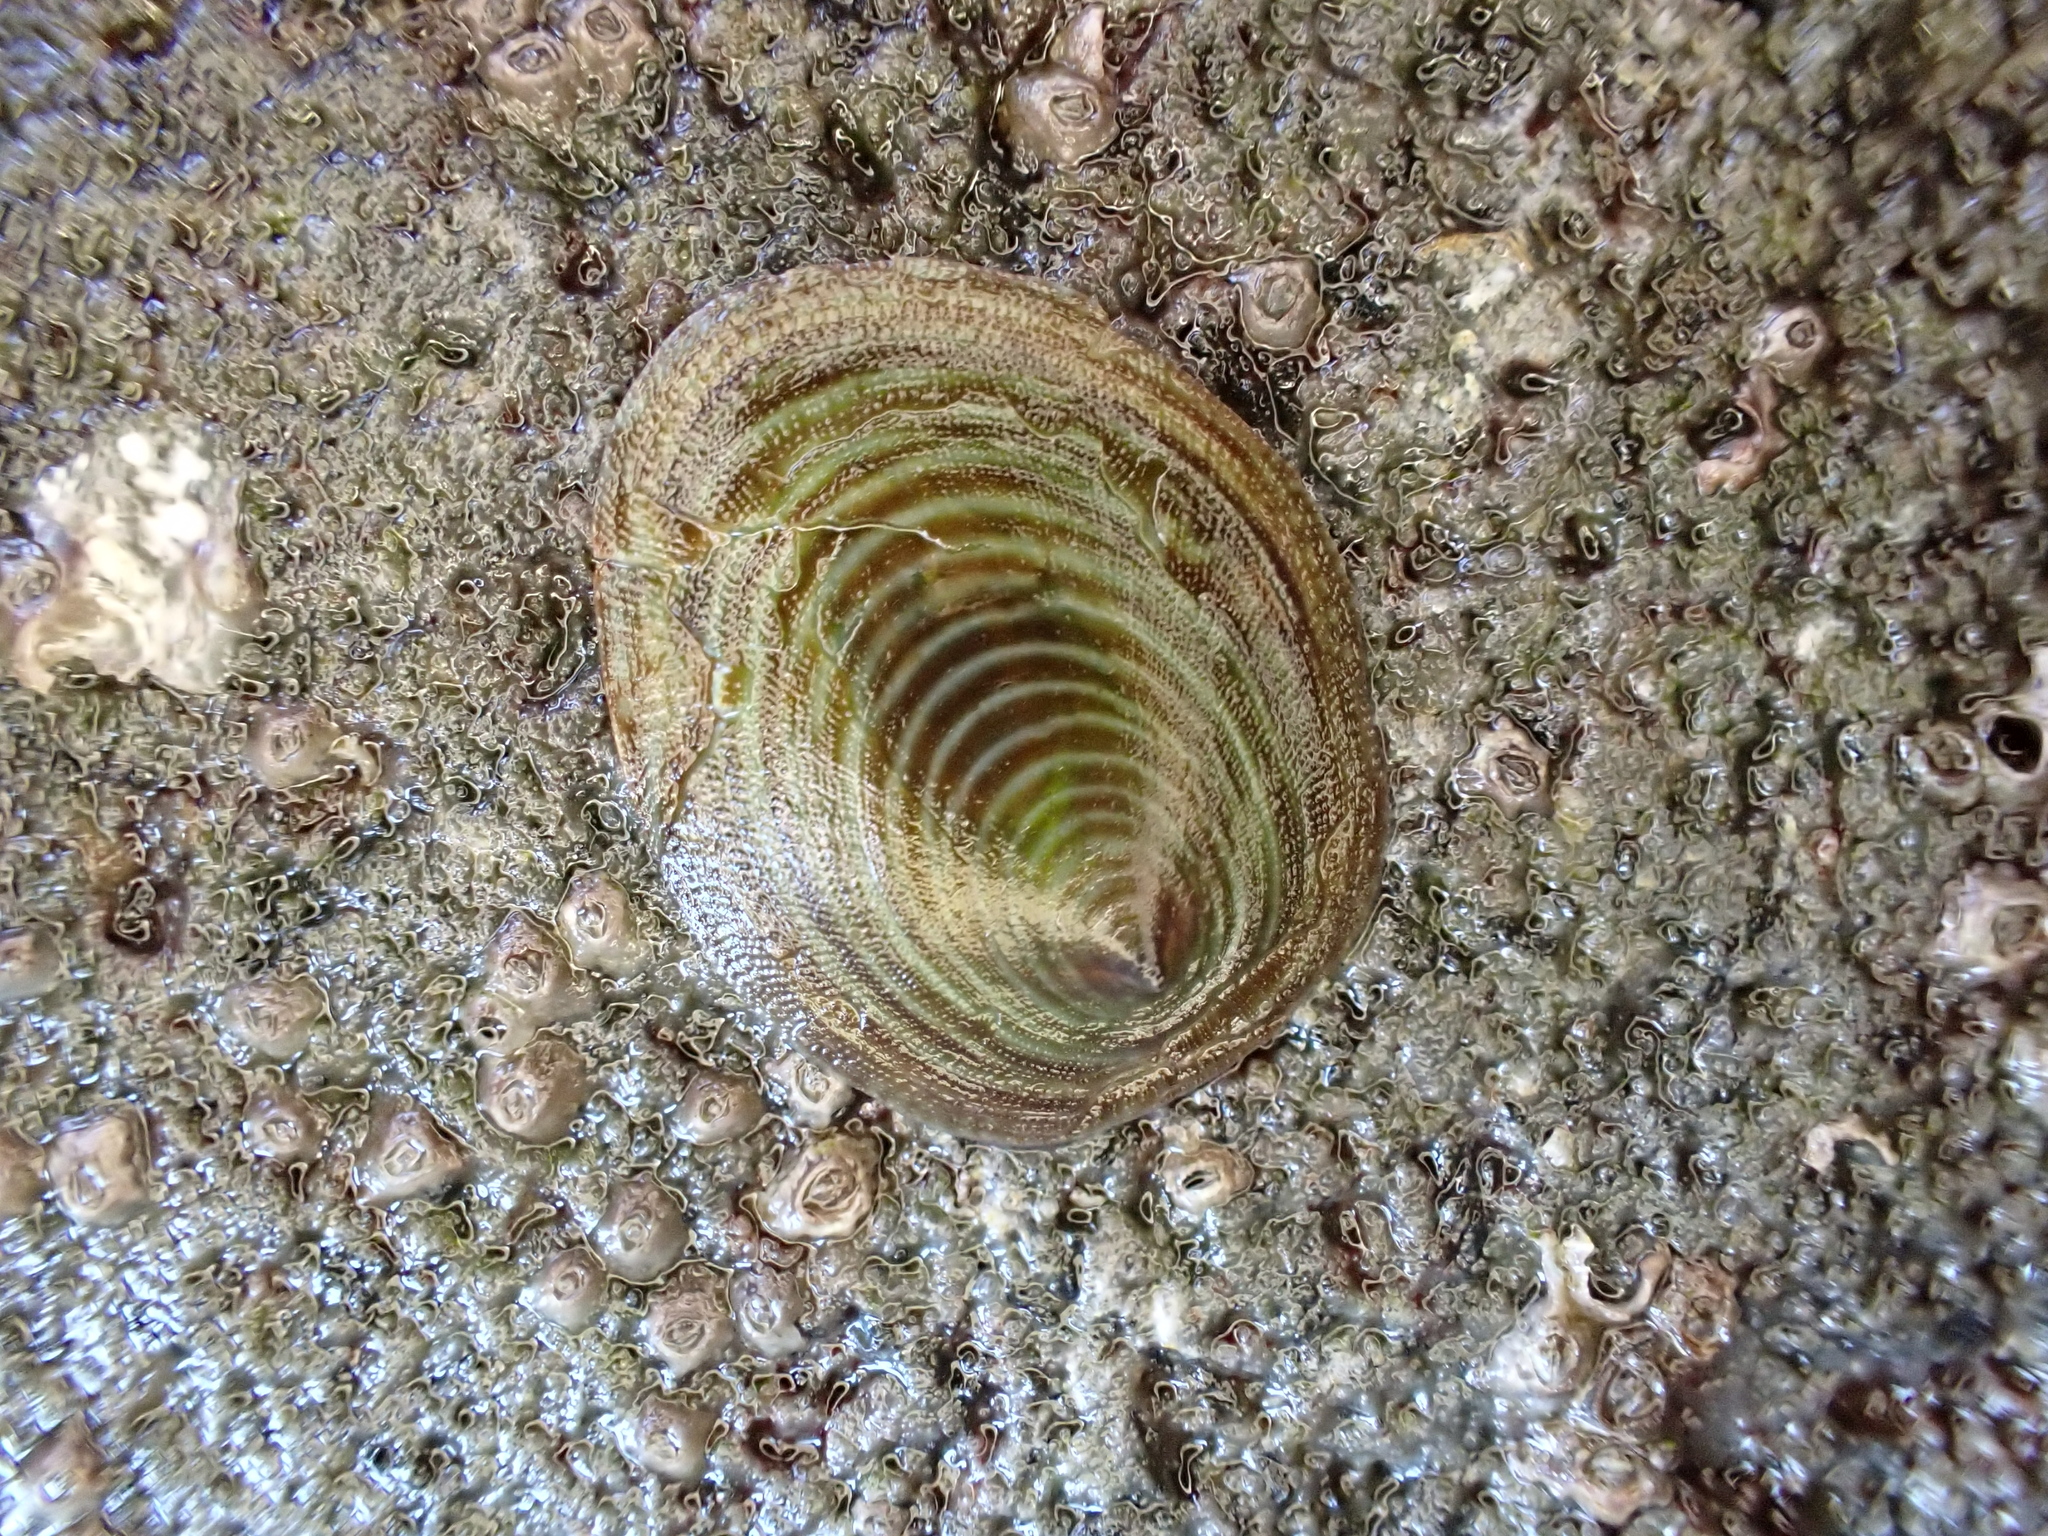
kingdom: Animalia
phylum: Mollusca
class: Gastropoda
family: Lottiidae
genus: Atalacmea
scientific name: Atalacmea fragilis
